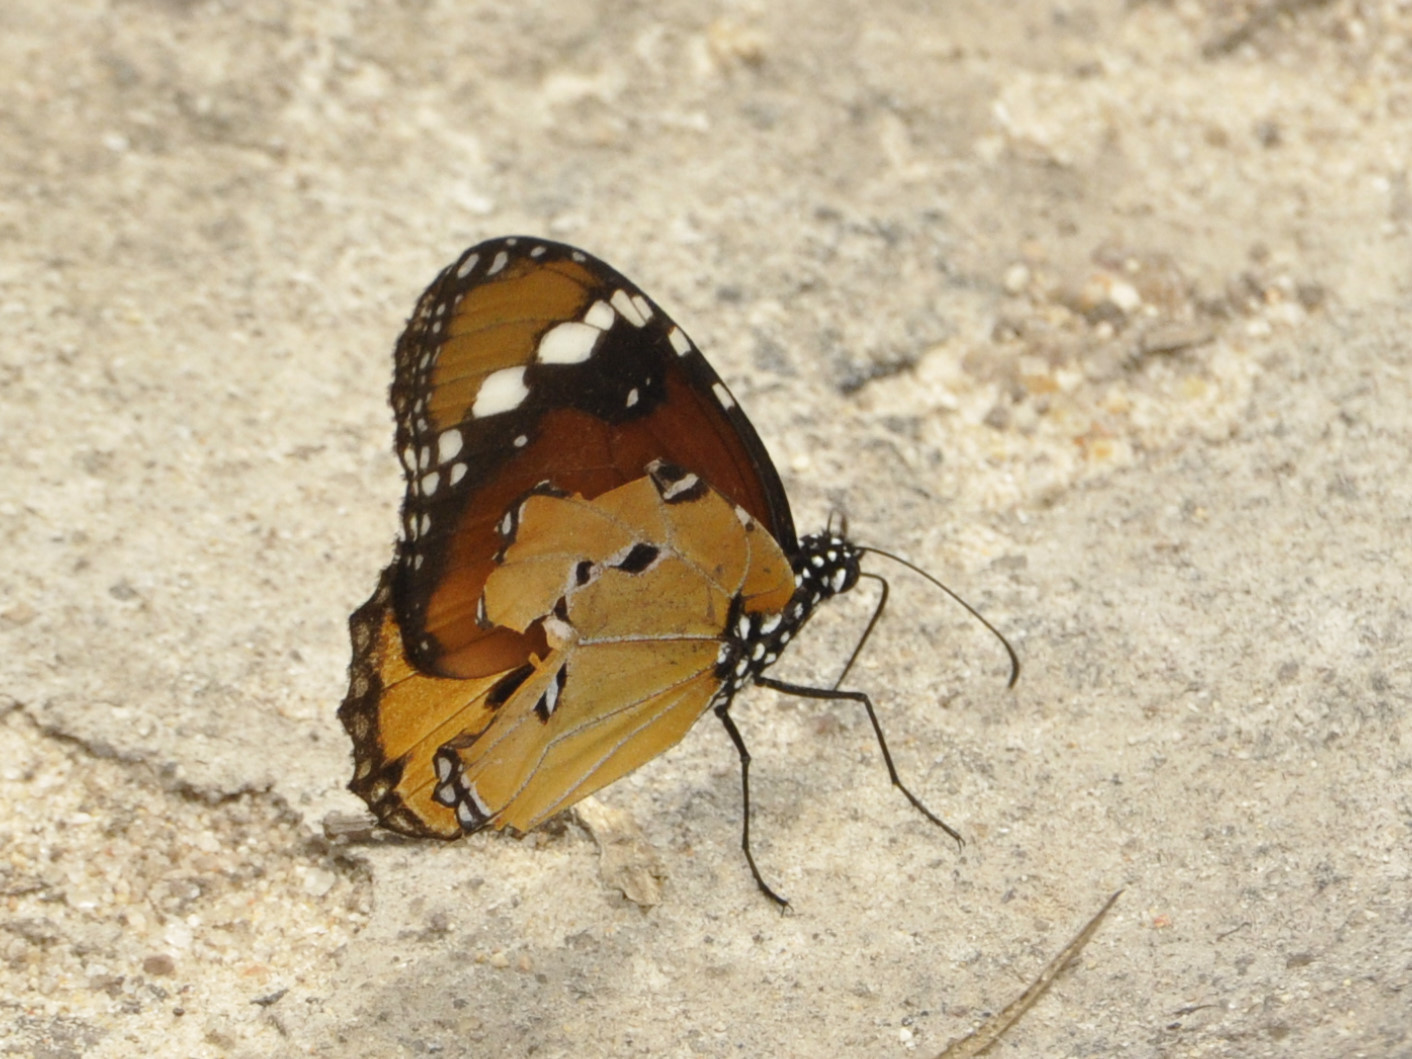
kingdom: Animalia
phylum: Arthropoda
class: Insecta
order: Lepidoptera
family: Nymphalidae
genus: Danaus
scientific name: Danaus chrysippus
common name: Plain tiger
